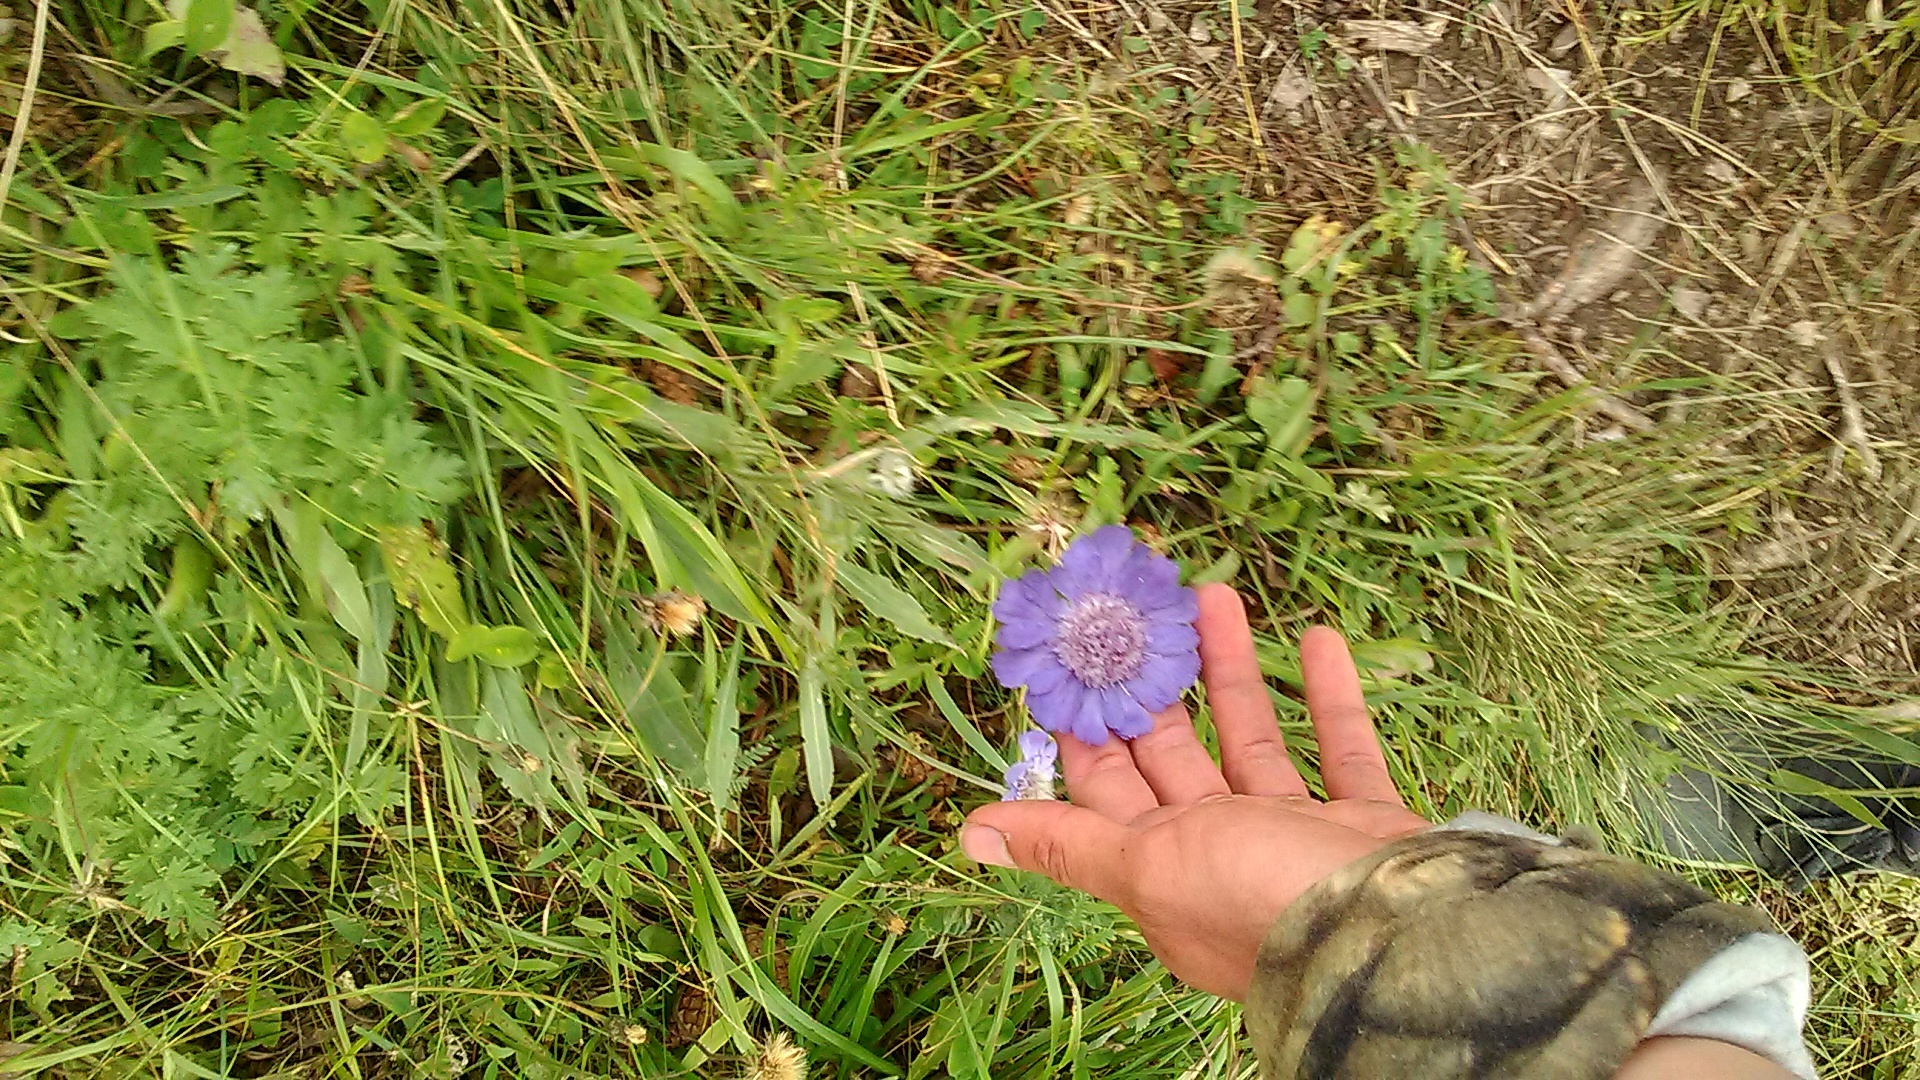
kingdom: Plantae
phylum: Tracheophyta
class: Magnoliopsida
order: Dipsacales
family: Caprifoliaceae
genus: Lomelosia
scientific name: Lomelosia caucasica
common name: Pincushion-flower
